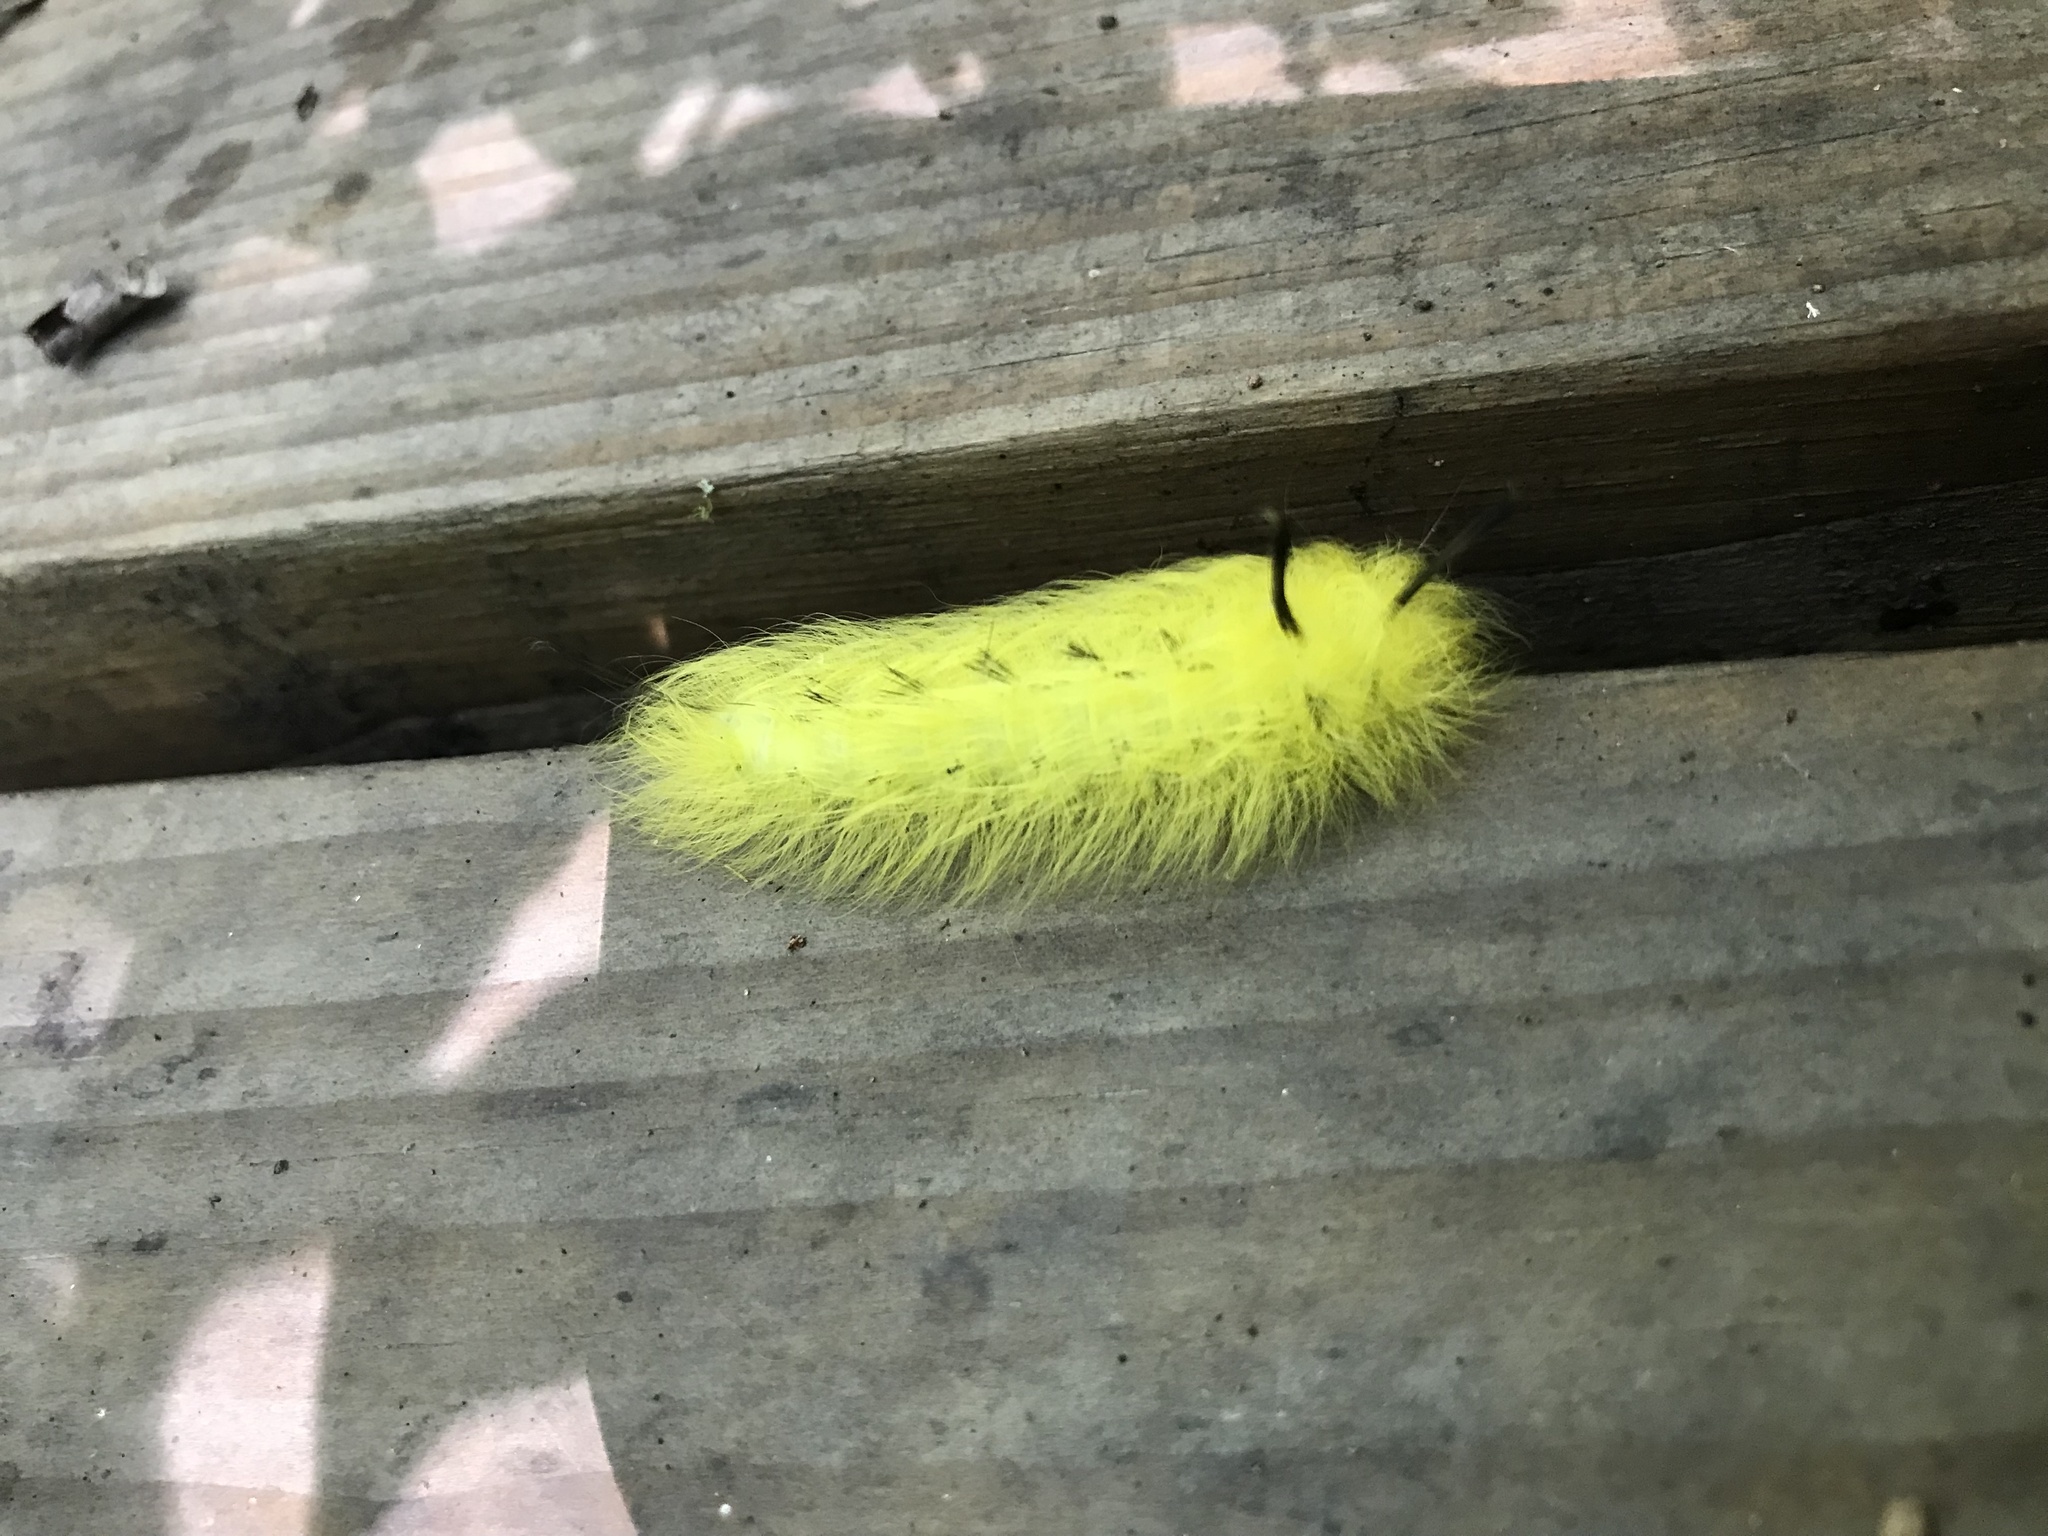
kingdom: Animalia
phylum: Arthropoda
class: Insecta
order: Lepidoptera
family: Apatelodidae
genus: Hygrochroa
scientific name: Hygrochroa Apatelodes torrefacta
